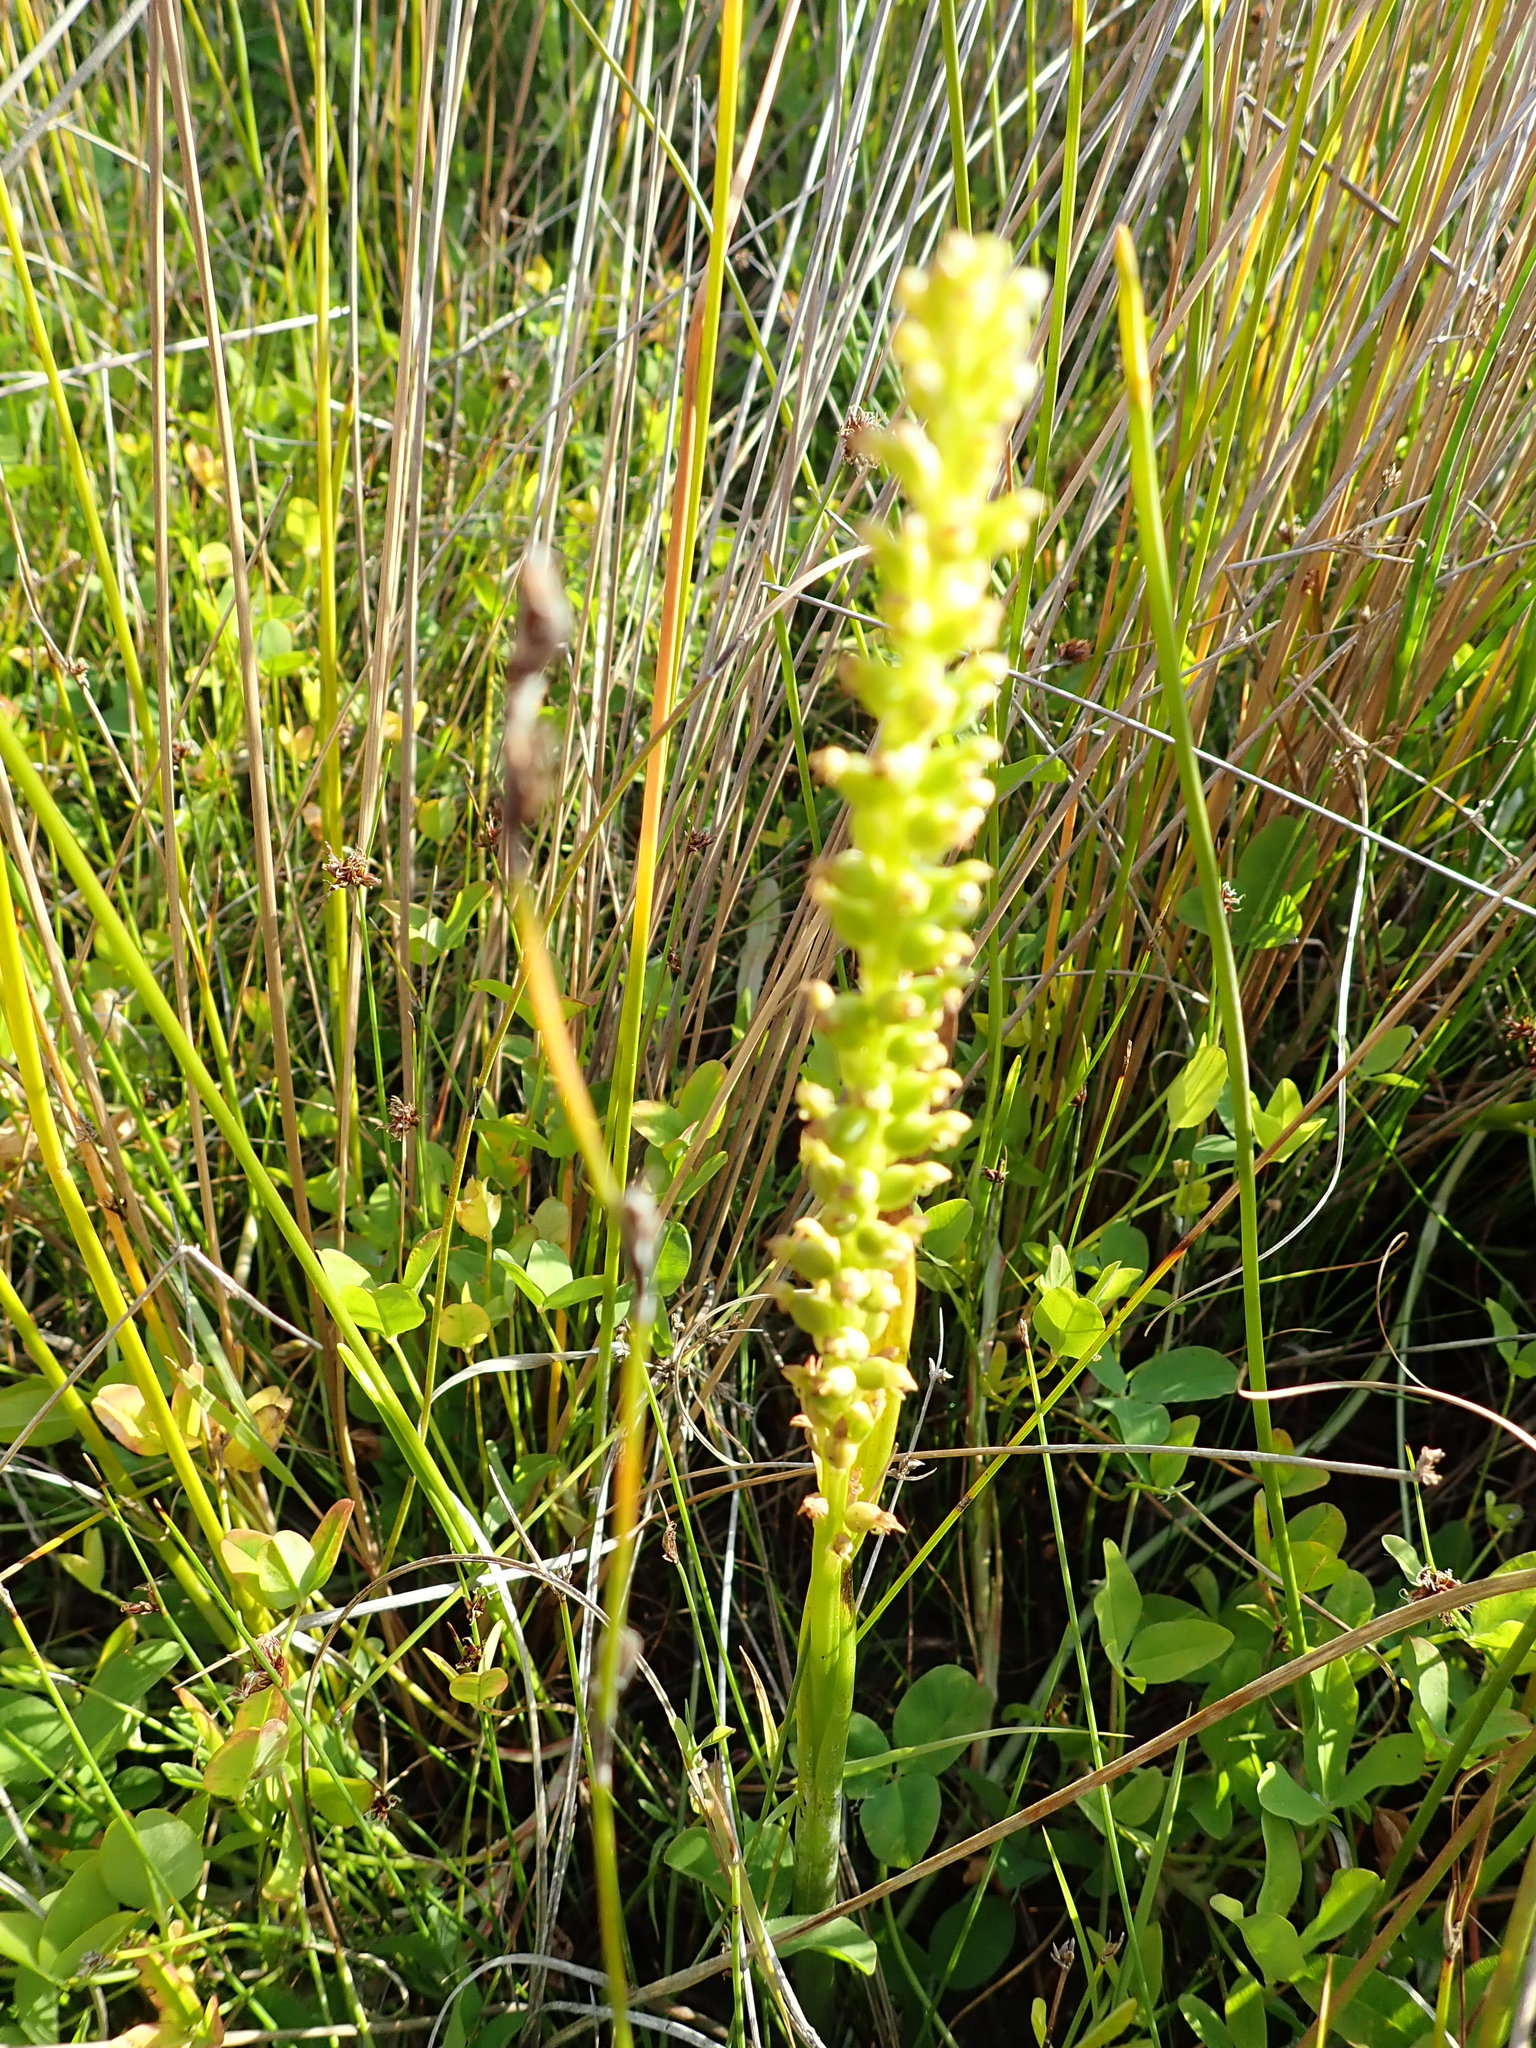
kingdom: Plantae
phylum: Tracheophyta
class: Liliopsida
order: Asparagales
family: Orchidaceae
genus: Microtis
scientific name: Microtis unifolia
